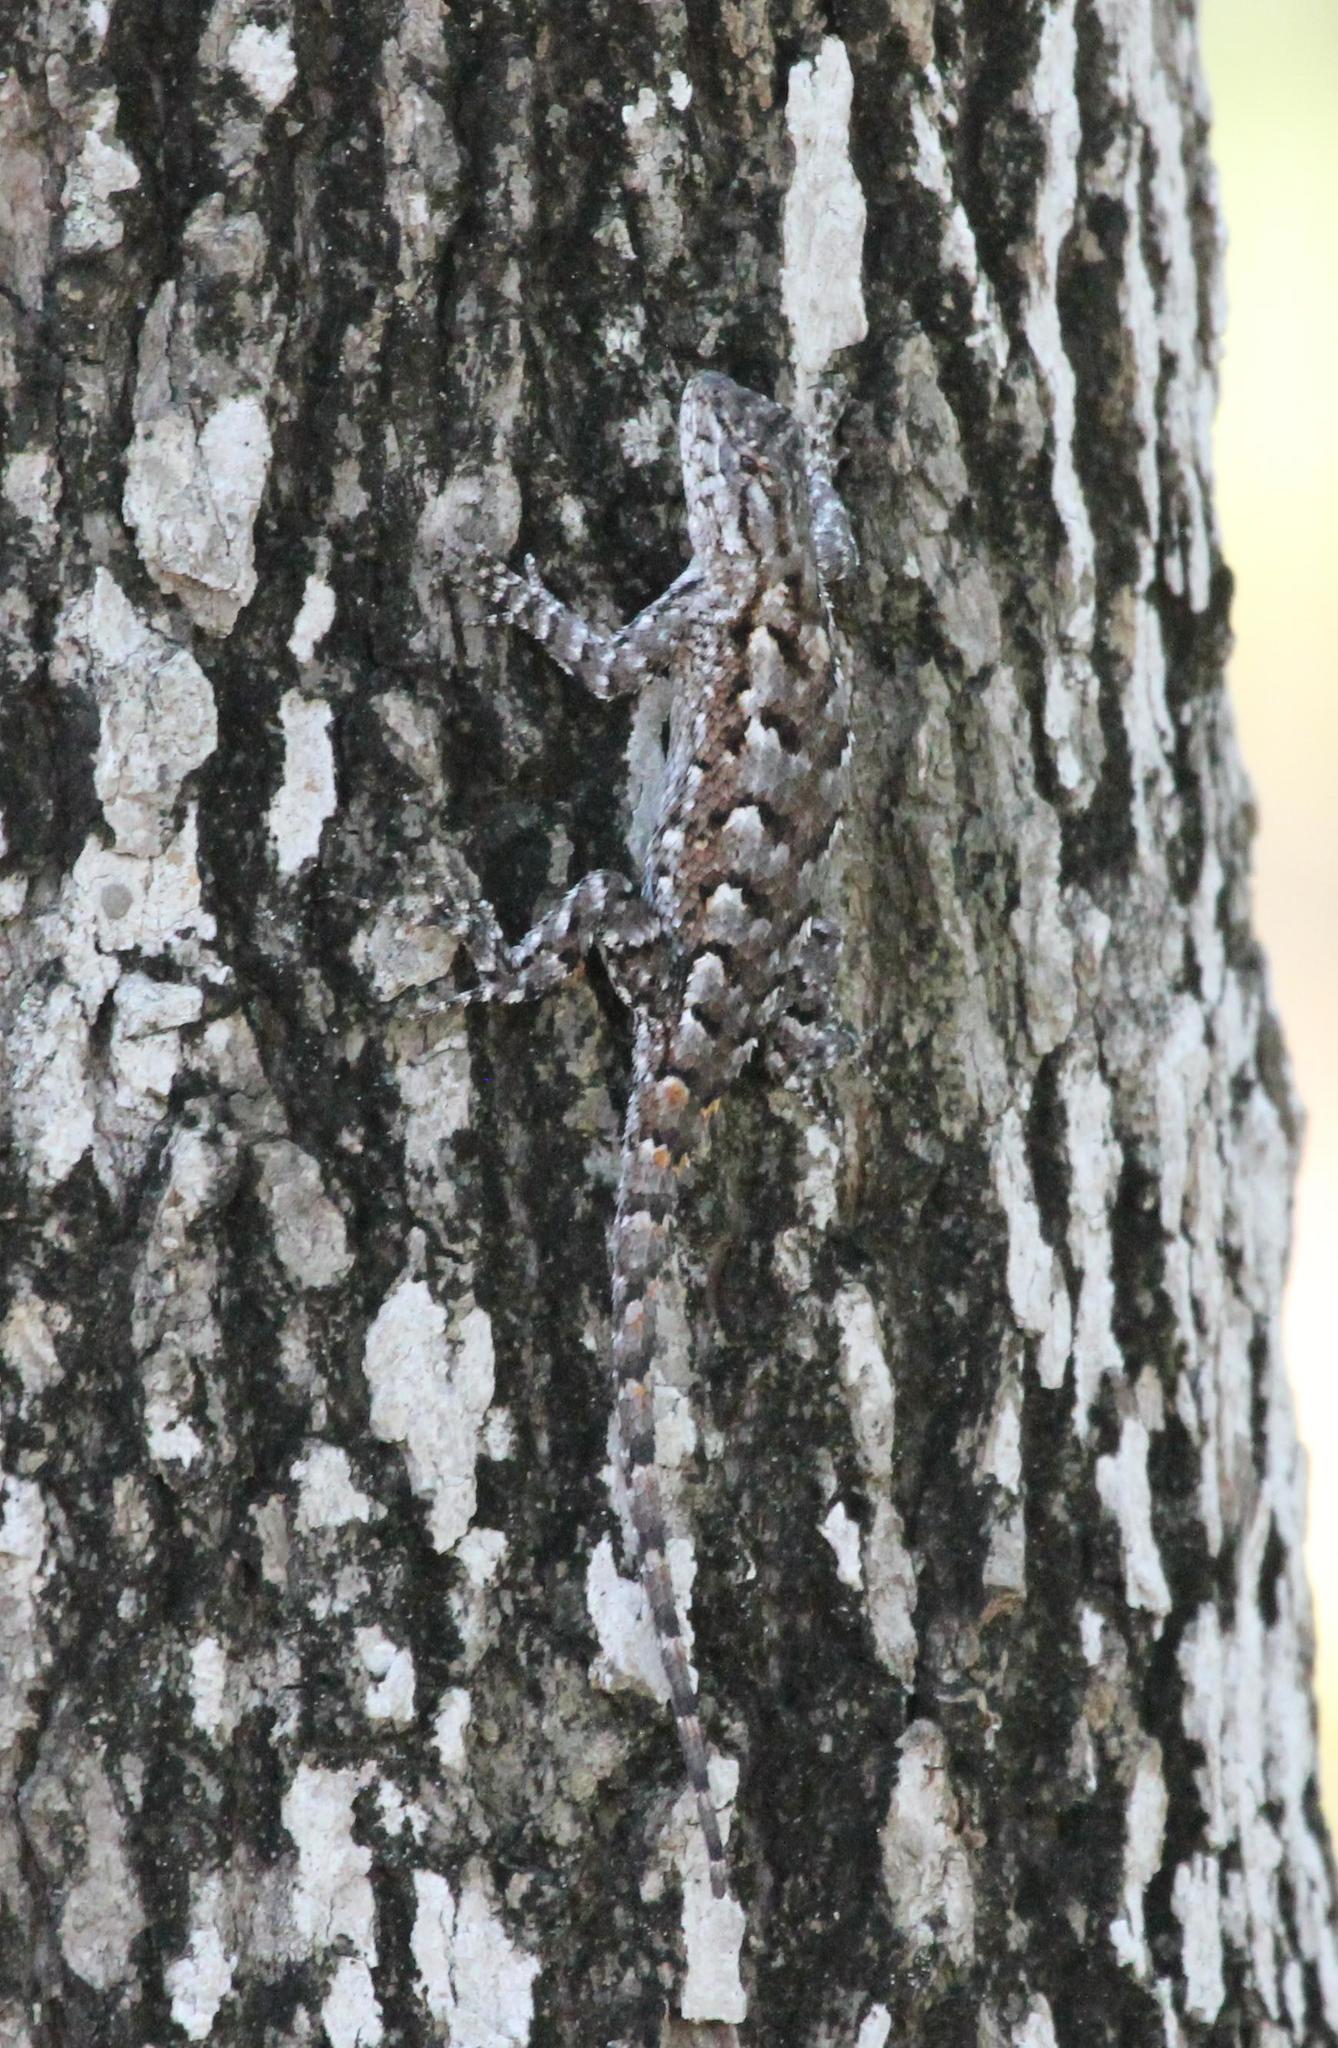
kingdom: Animalia
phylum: Chordata
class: Squamata
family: Phrynosomatidae
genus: Sceloporus
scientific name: Sceloporus consobrinus
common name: Southern prairie lizard
